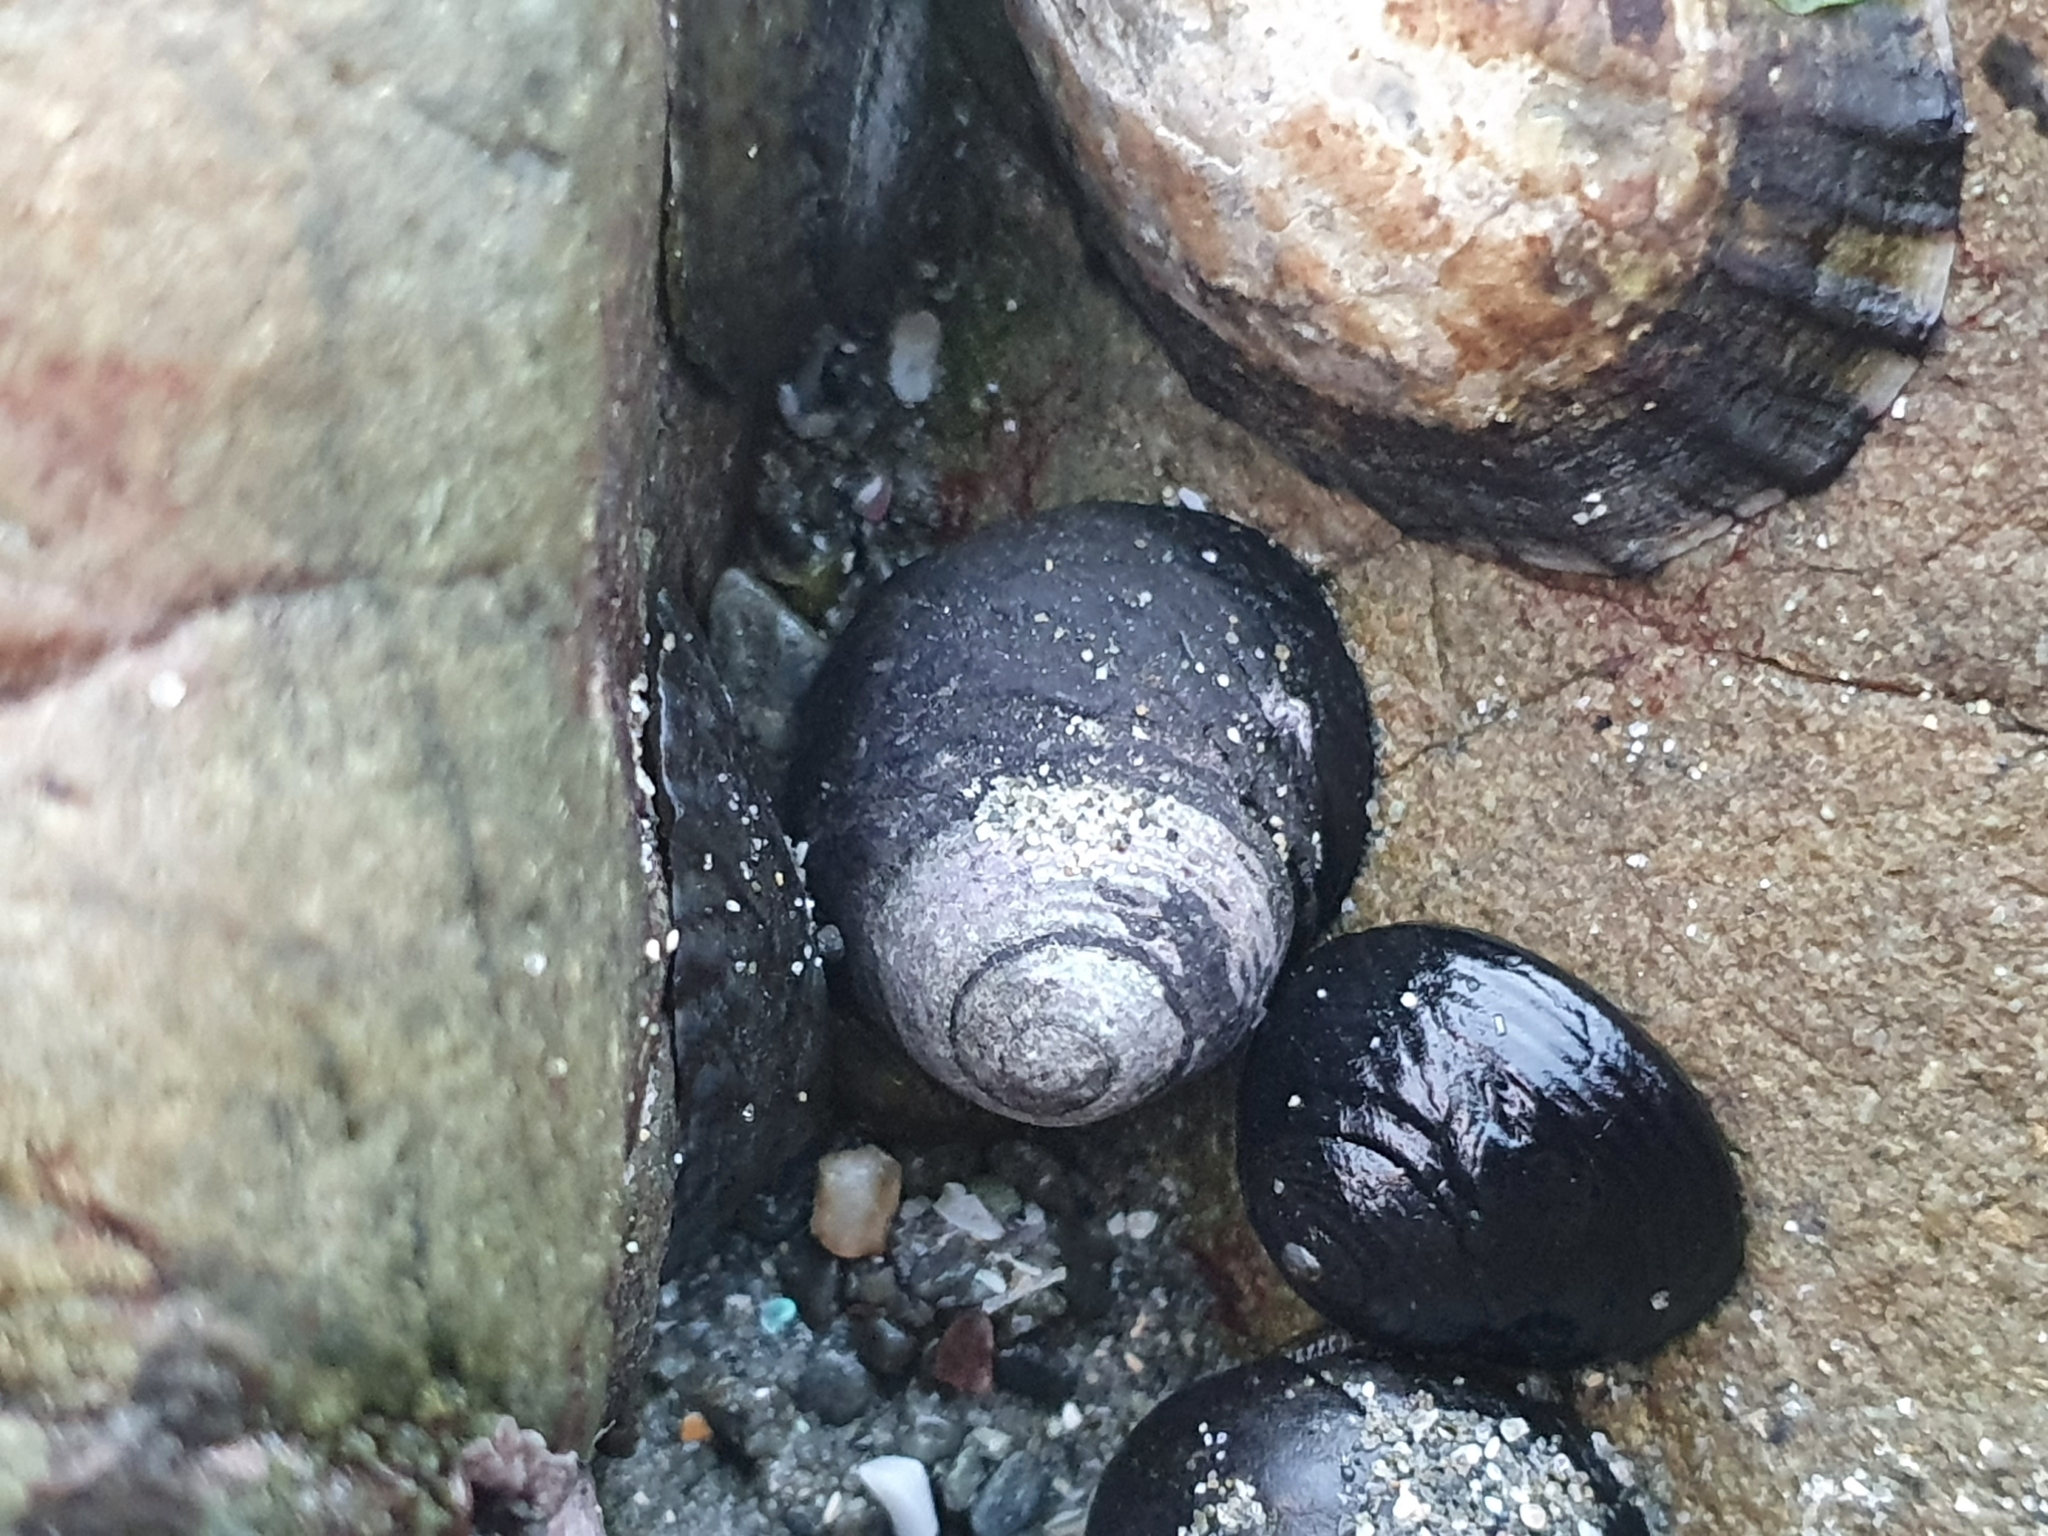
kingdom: Animalia
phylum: Mollusca
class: Gastropoda
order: Trochida
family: Trochidae
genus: Diloma
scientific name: Diloma aridum
